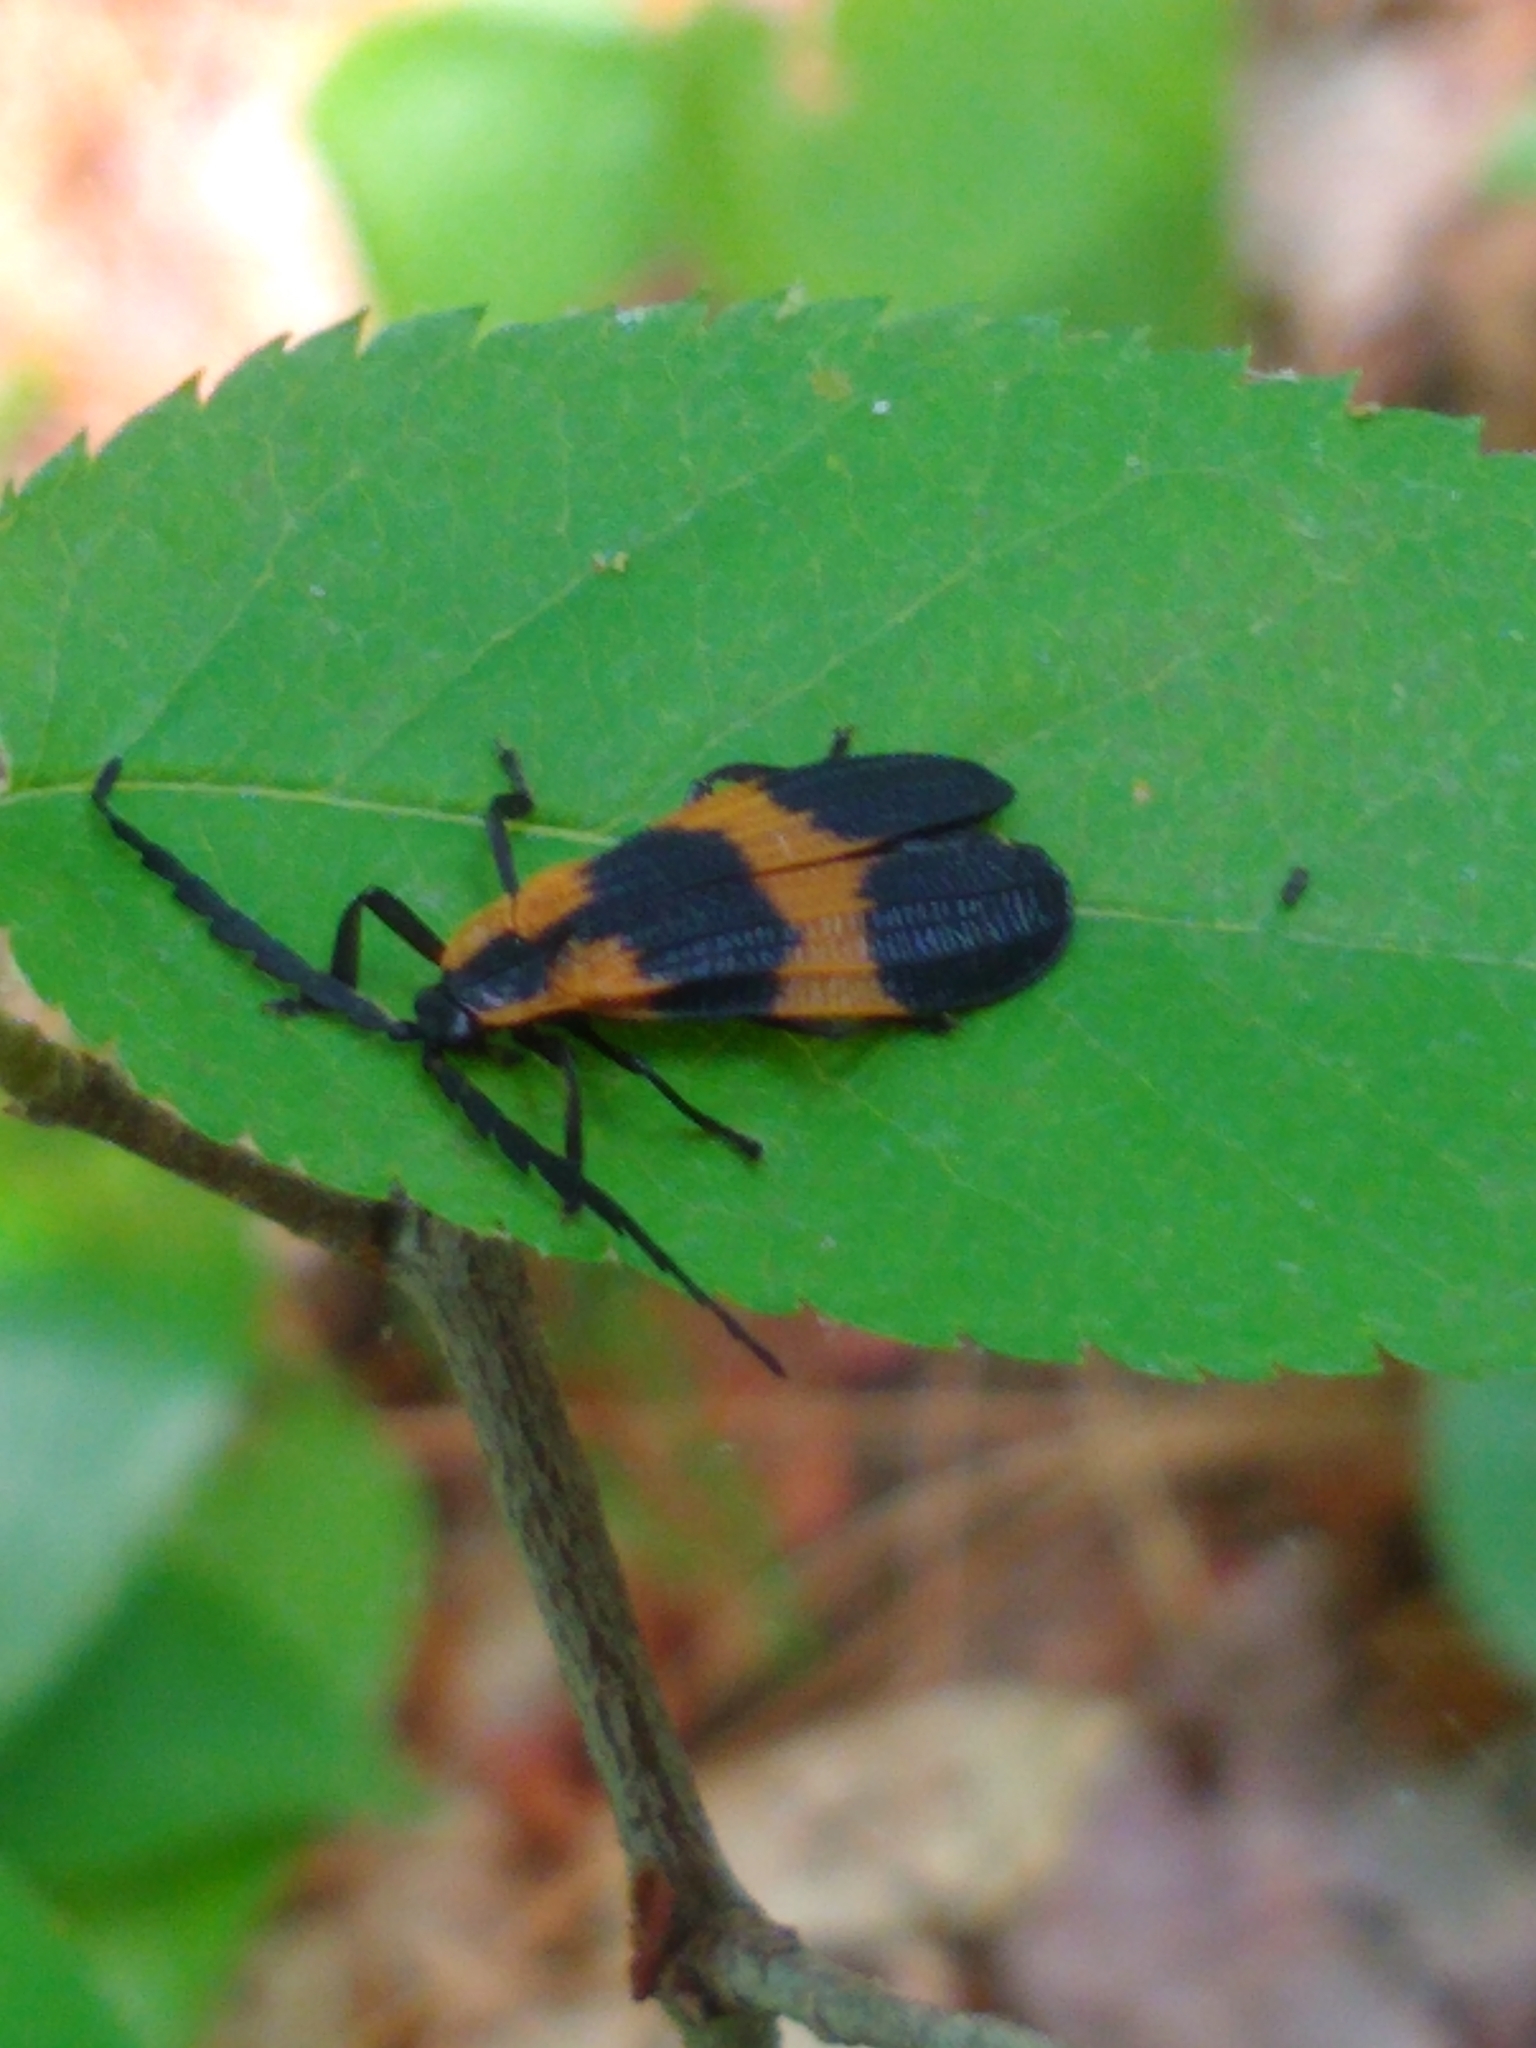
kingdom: Animalia
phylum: Arthropoda
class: Insecta
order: Coleoptera
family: Lycidae
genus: Calopteron
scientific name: Calopteron reticulatum
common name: Banded net-winged beetle
